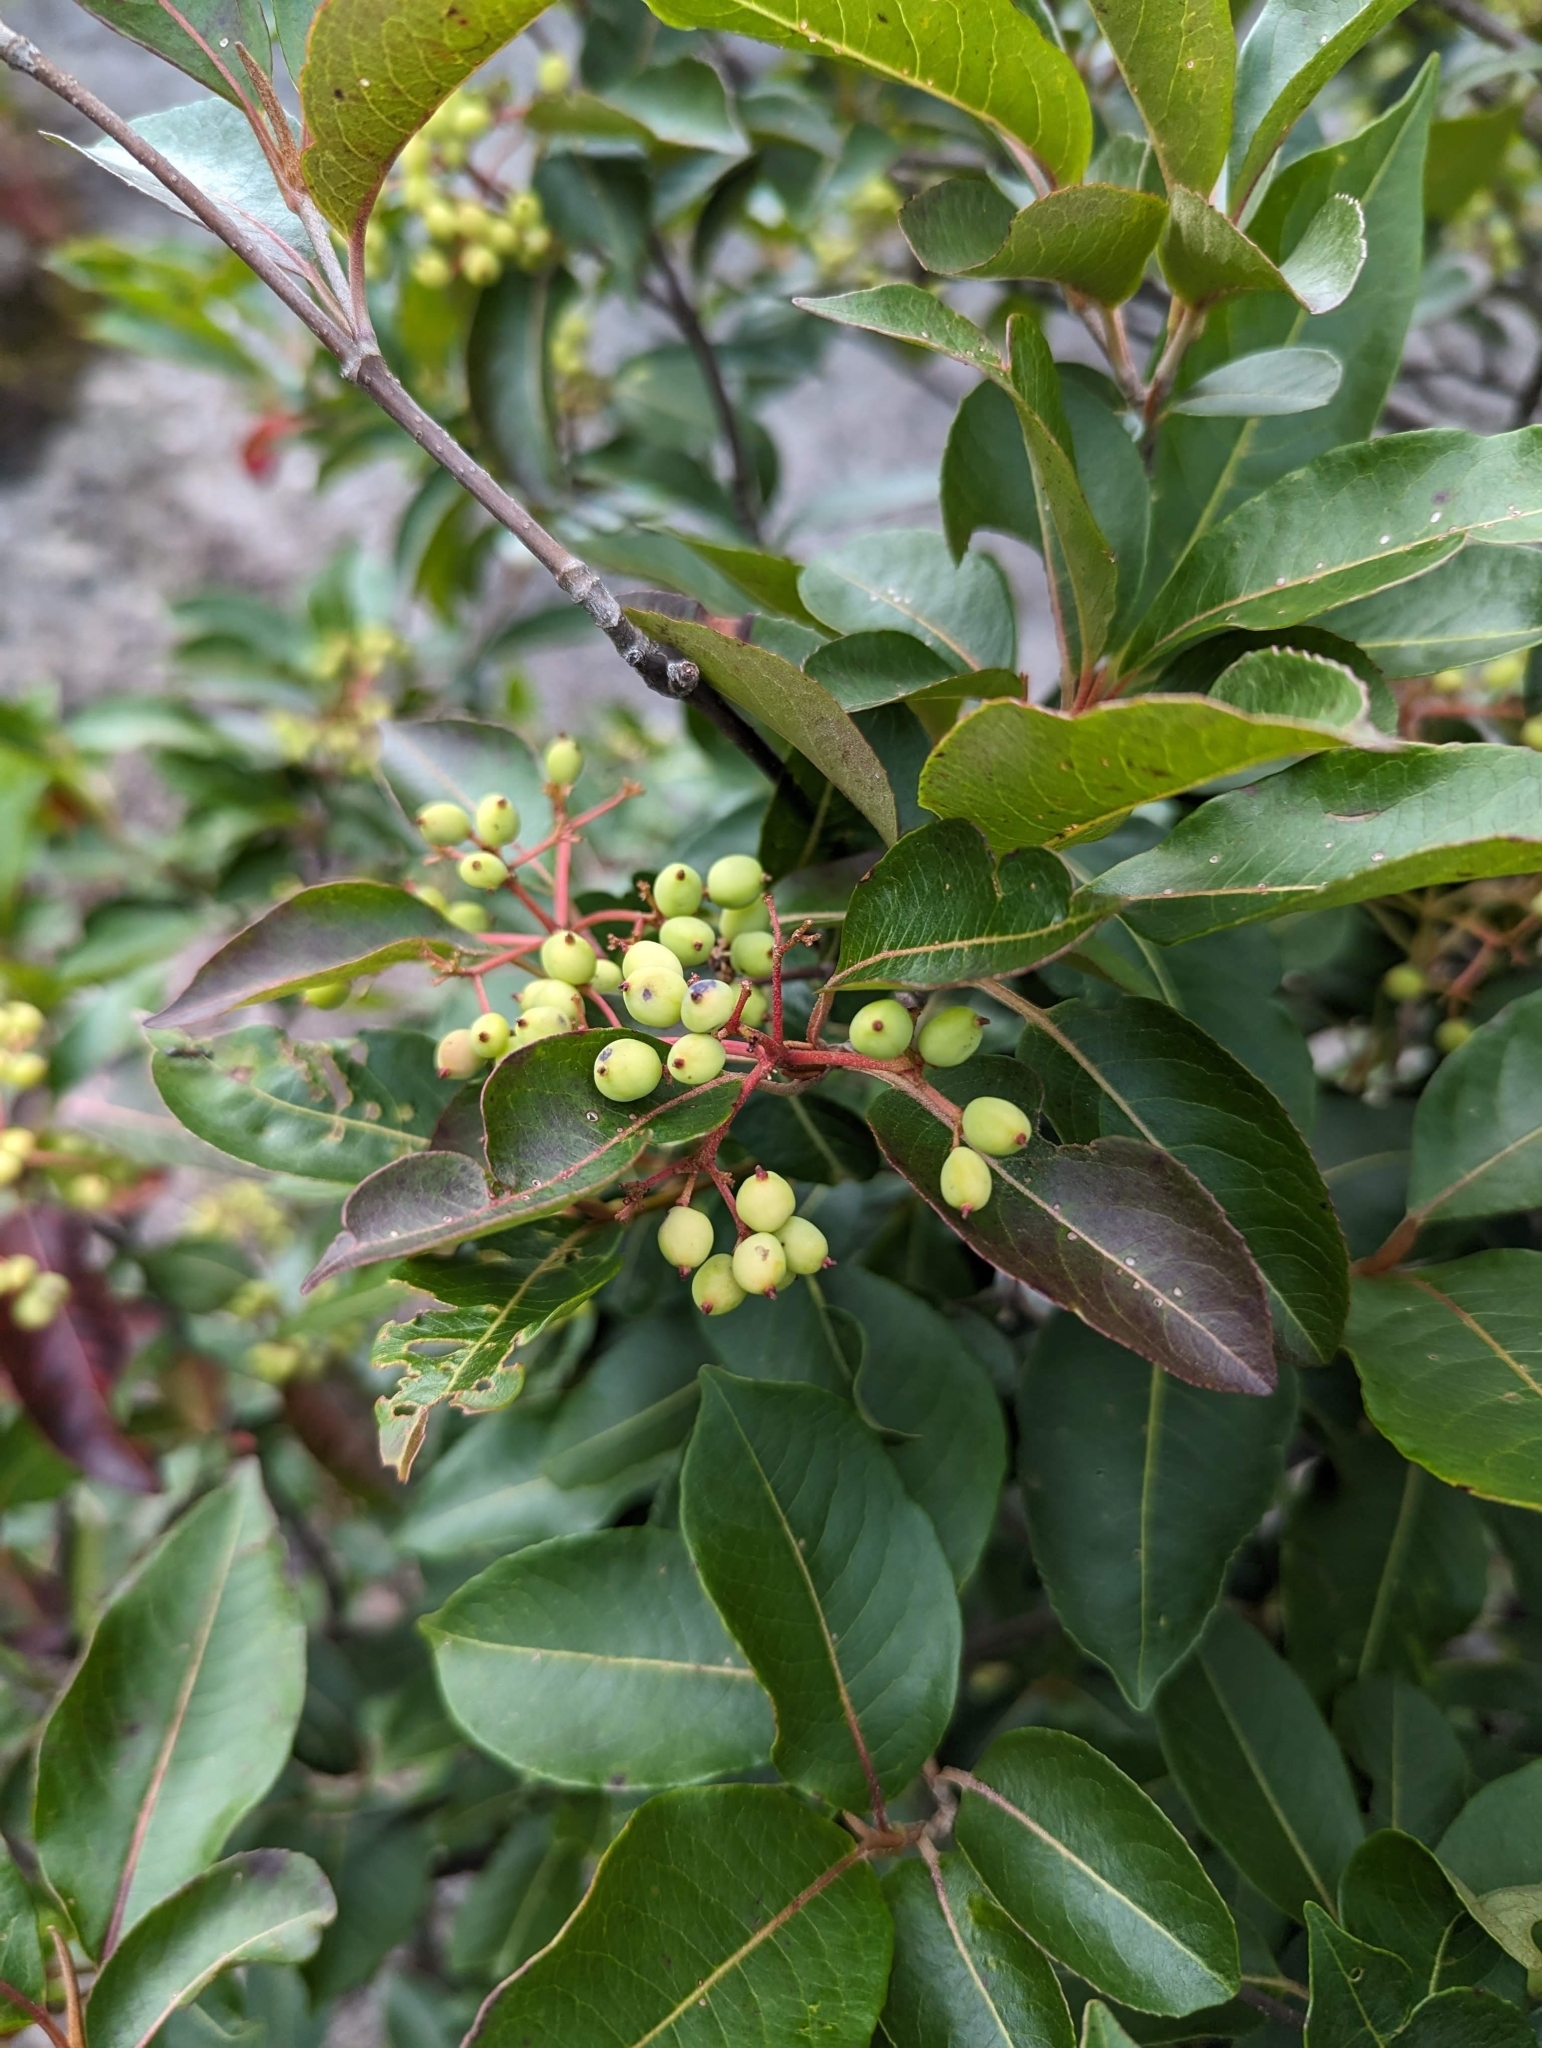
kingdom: Plantae
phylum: Tracheophyta
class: Magnoliopsida
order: Dipsacales
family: Viburnaceae
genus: Viburnum
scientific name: Viburnum cassinoides
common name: Swamp haw
